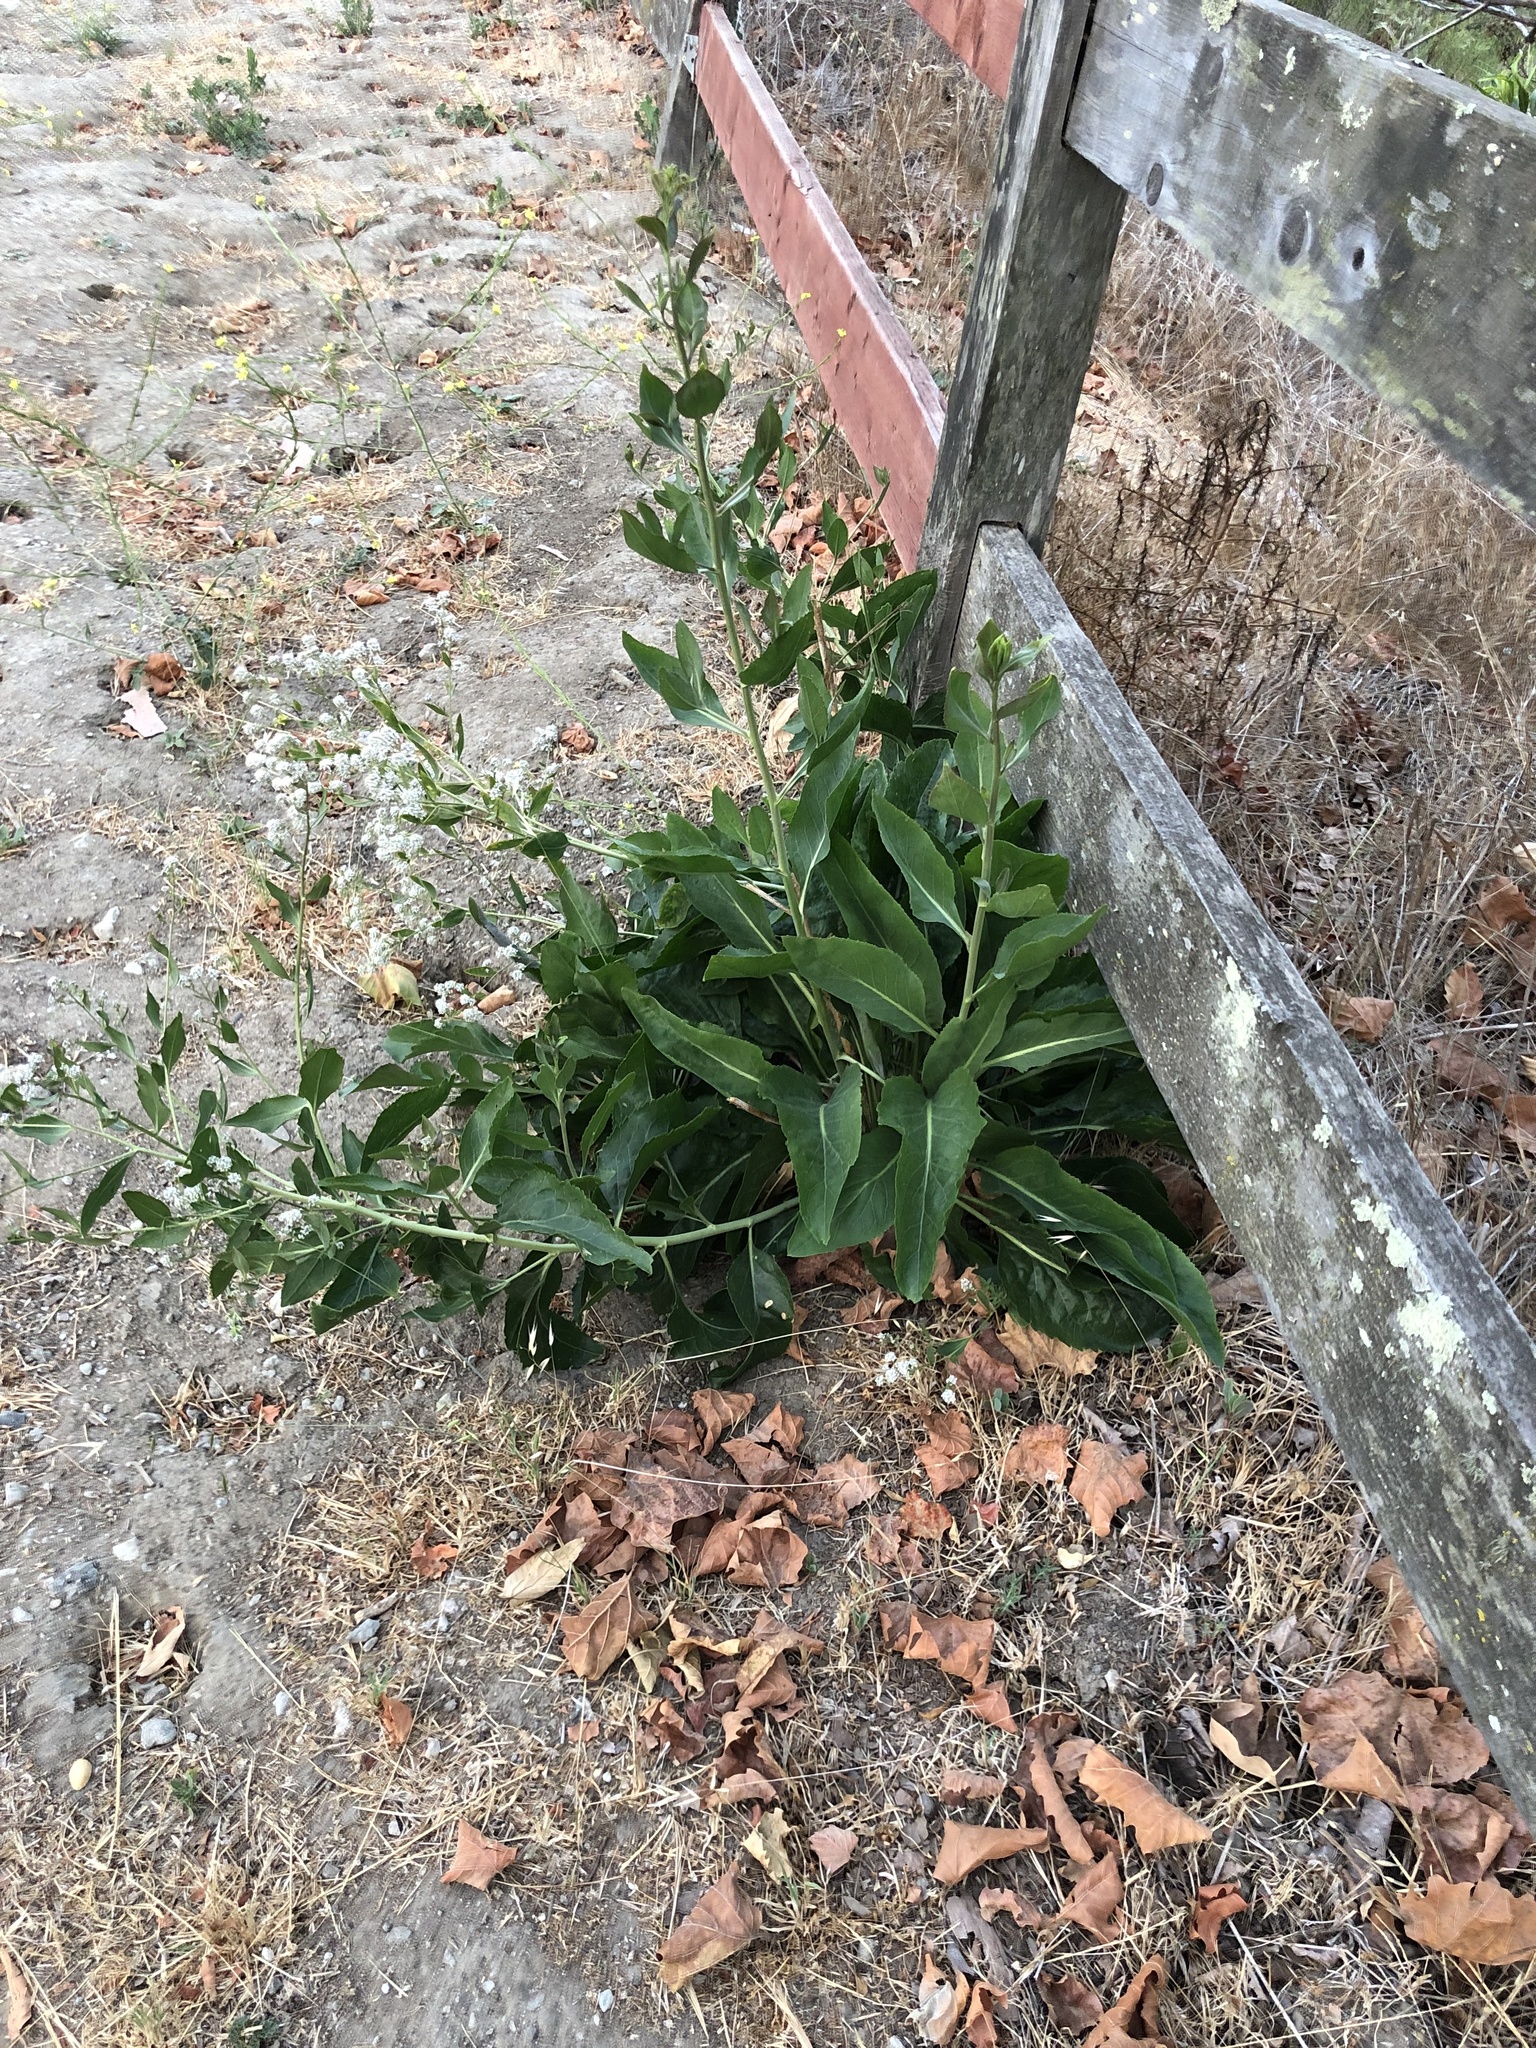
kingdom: Plantae
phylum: Tracheophyta
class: Magnoliopsida
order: Brassicales
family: Brassicaceae
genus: Lepidium
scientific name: Lepidium latifolium
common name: Dittander
